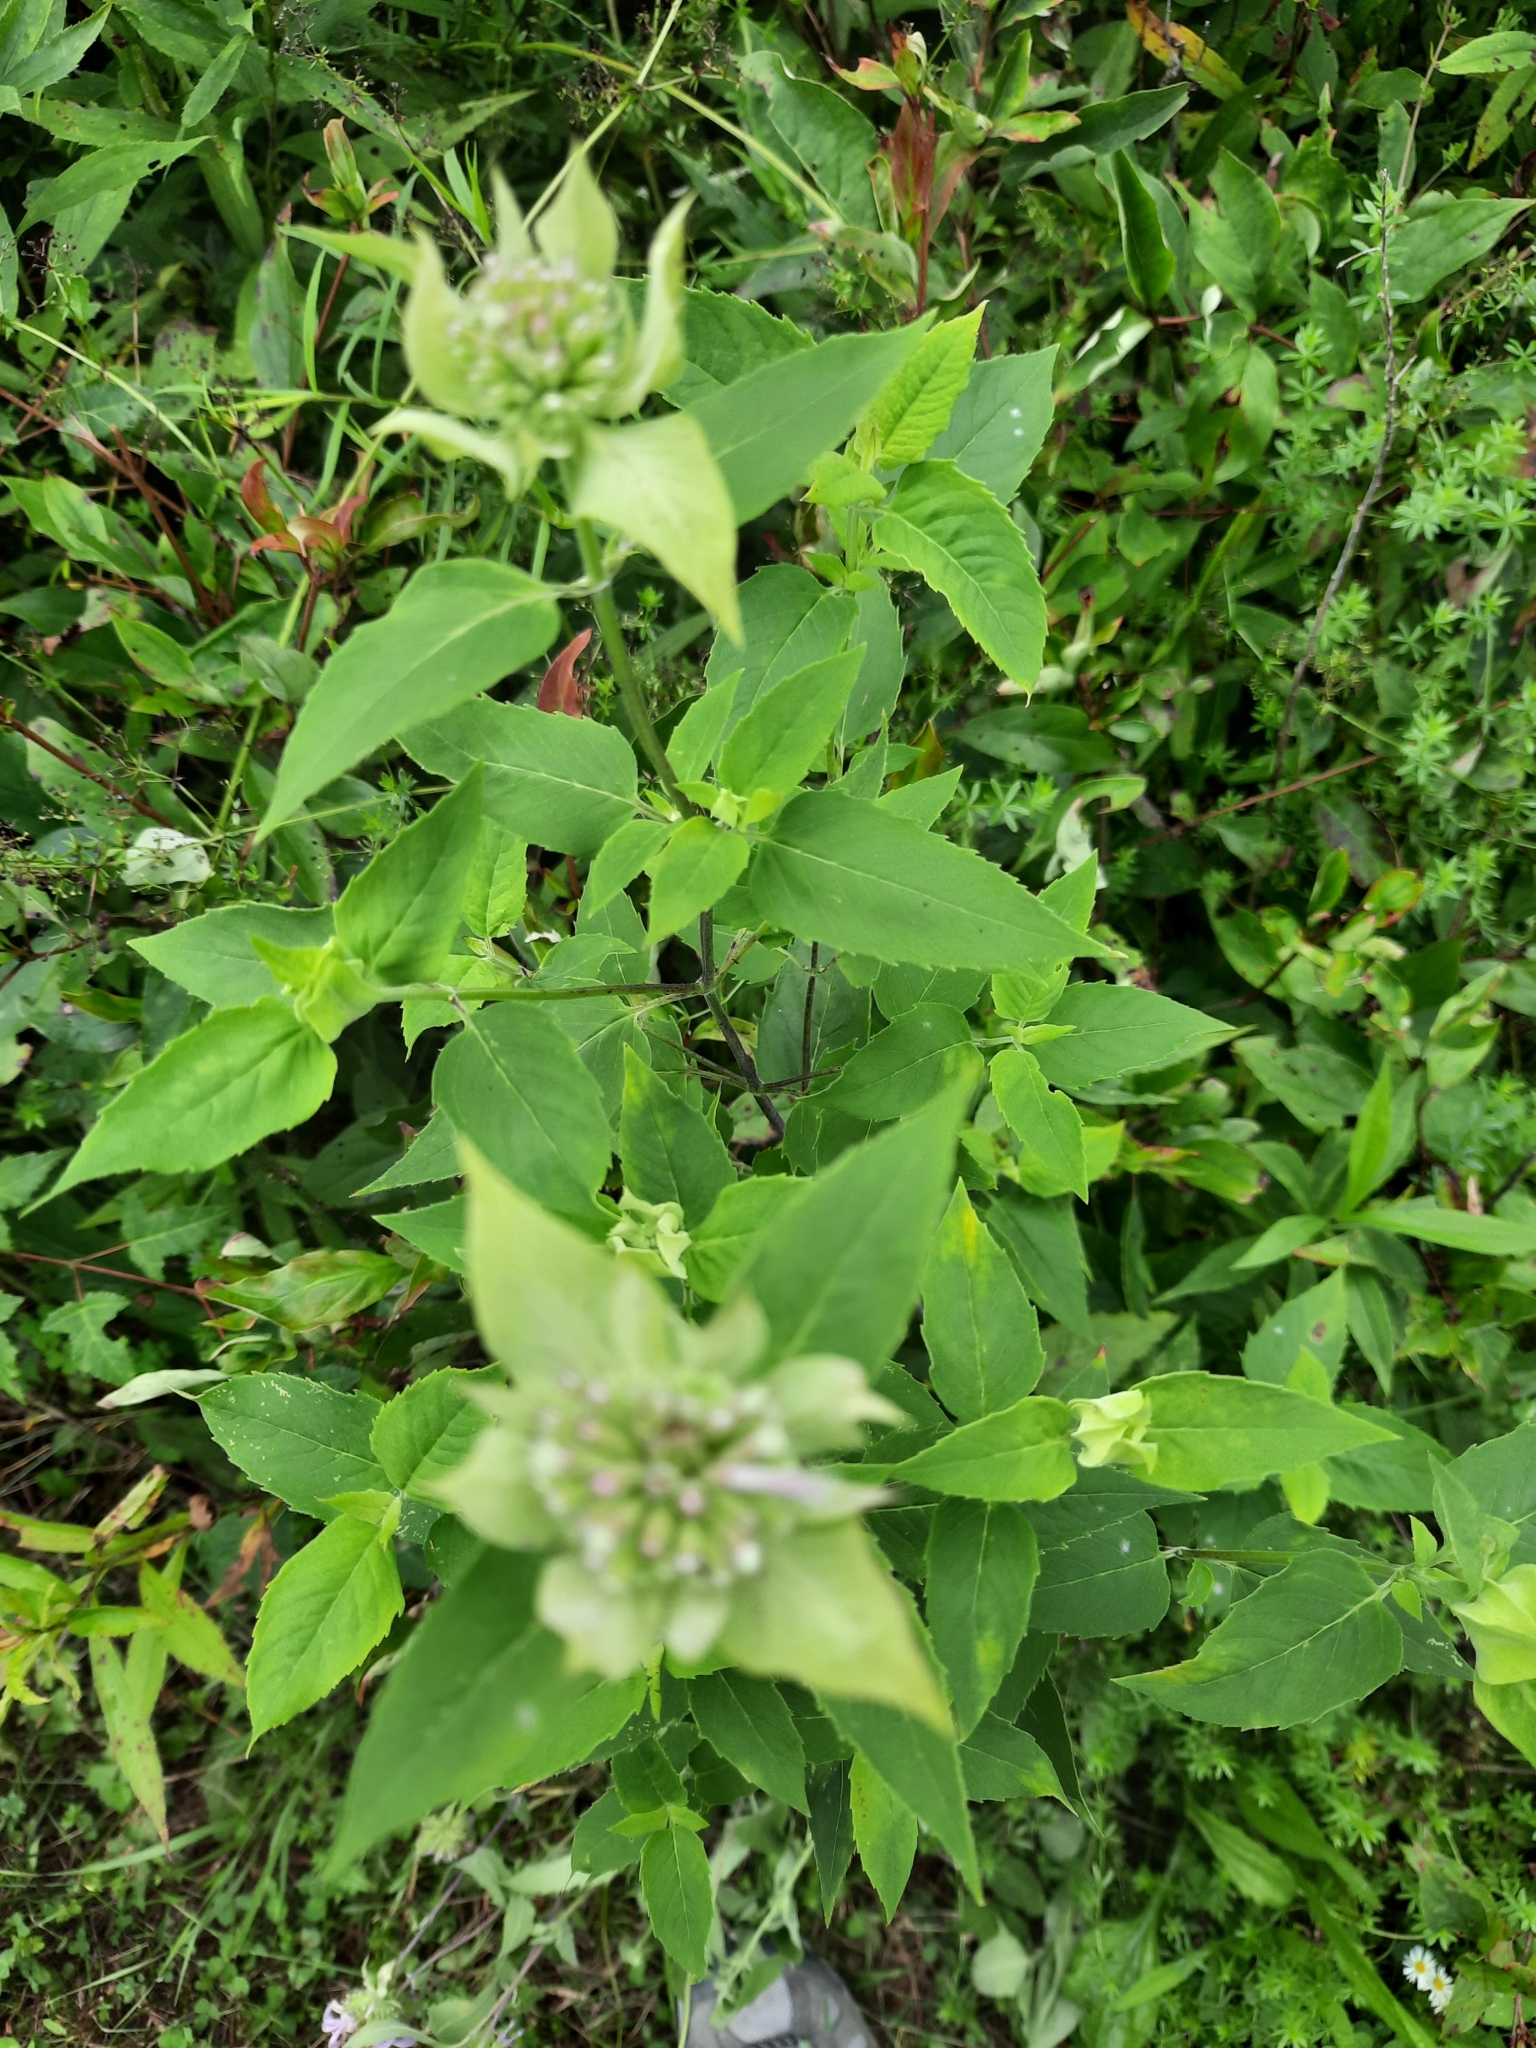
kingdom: Plantae
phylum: Tracheophyta
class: Magnoliopsida
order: Lamiales
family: Lamiaceae
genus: Monarda
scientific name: Monarda fistulosa
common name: Purple beebalm
